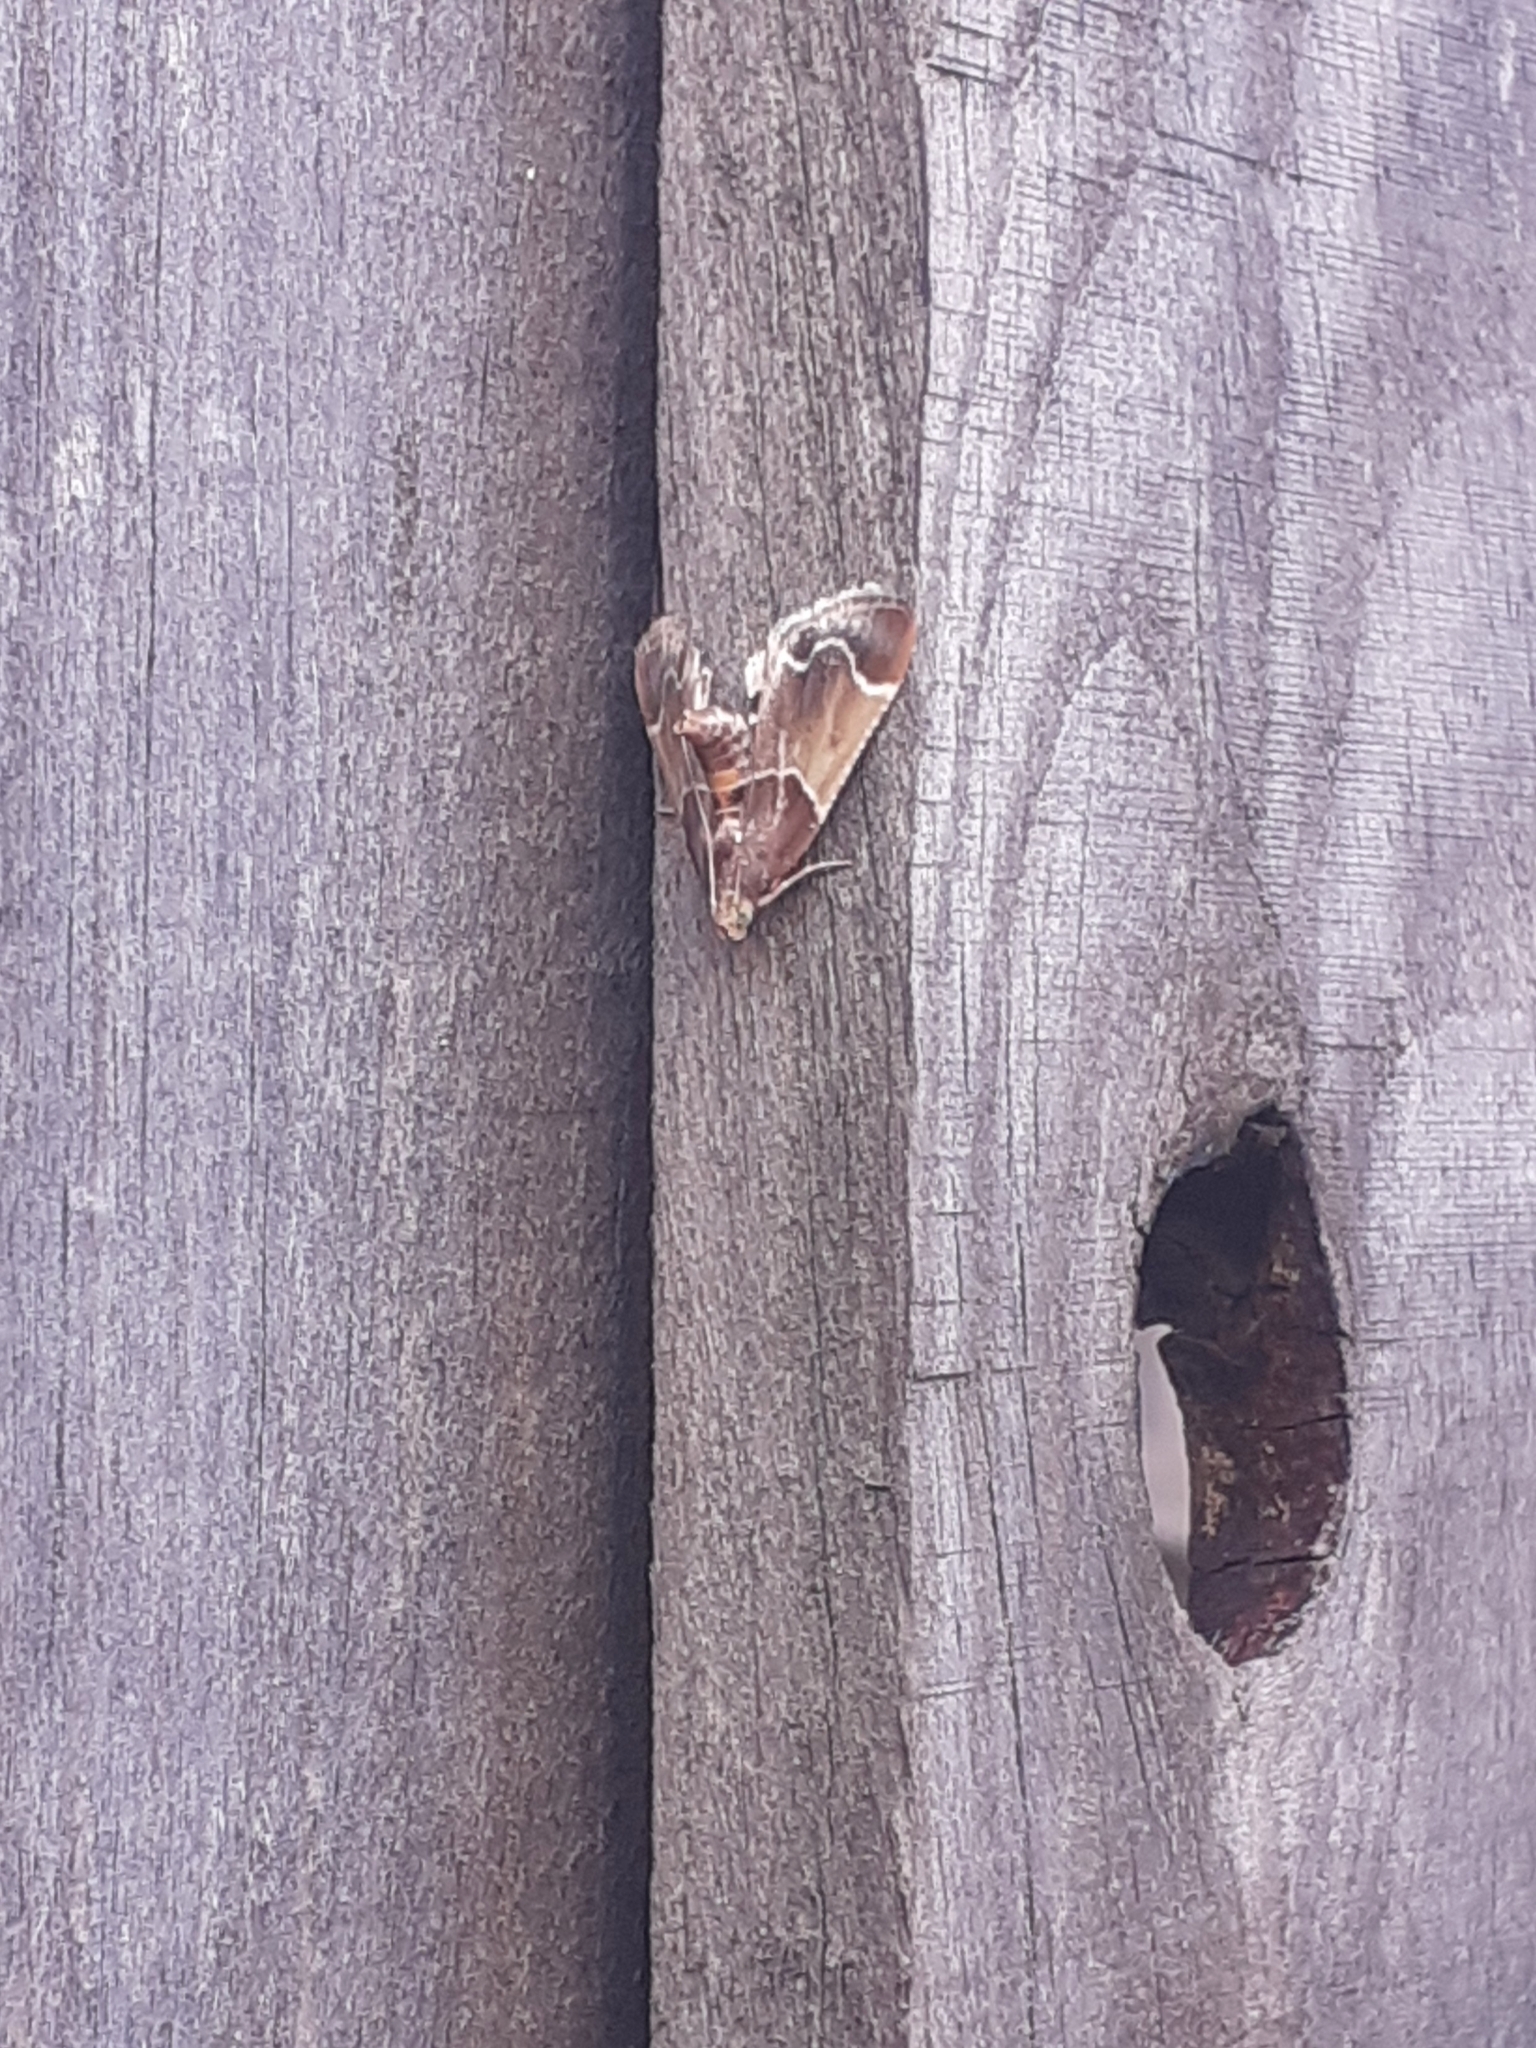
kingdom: Animalia
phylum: Arthropoda
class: Insecta
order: Lepidoptera
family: Pyralidae
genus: Pyralis
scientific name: Pyralis farinalis
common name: Meal moth
